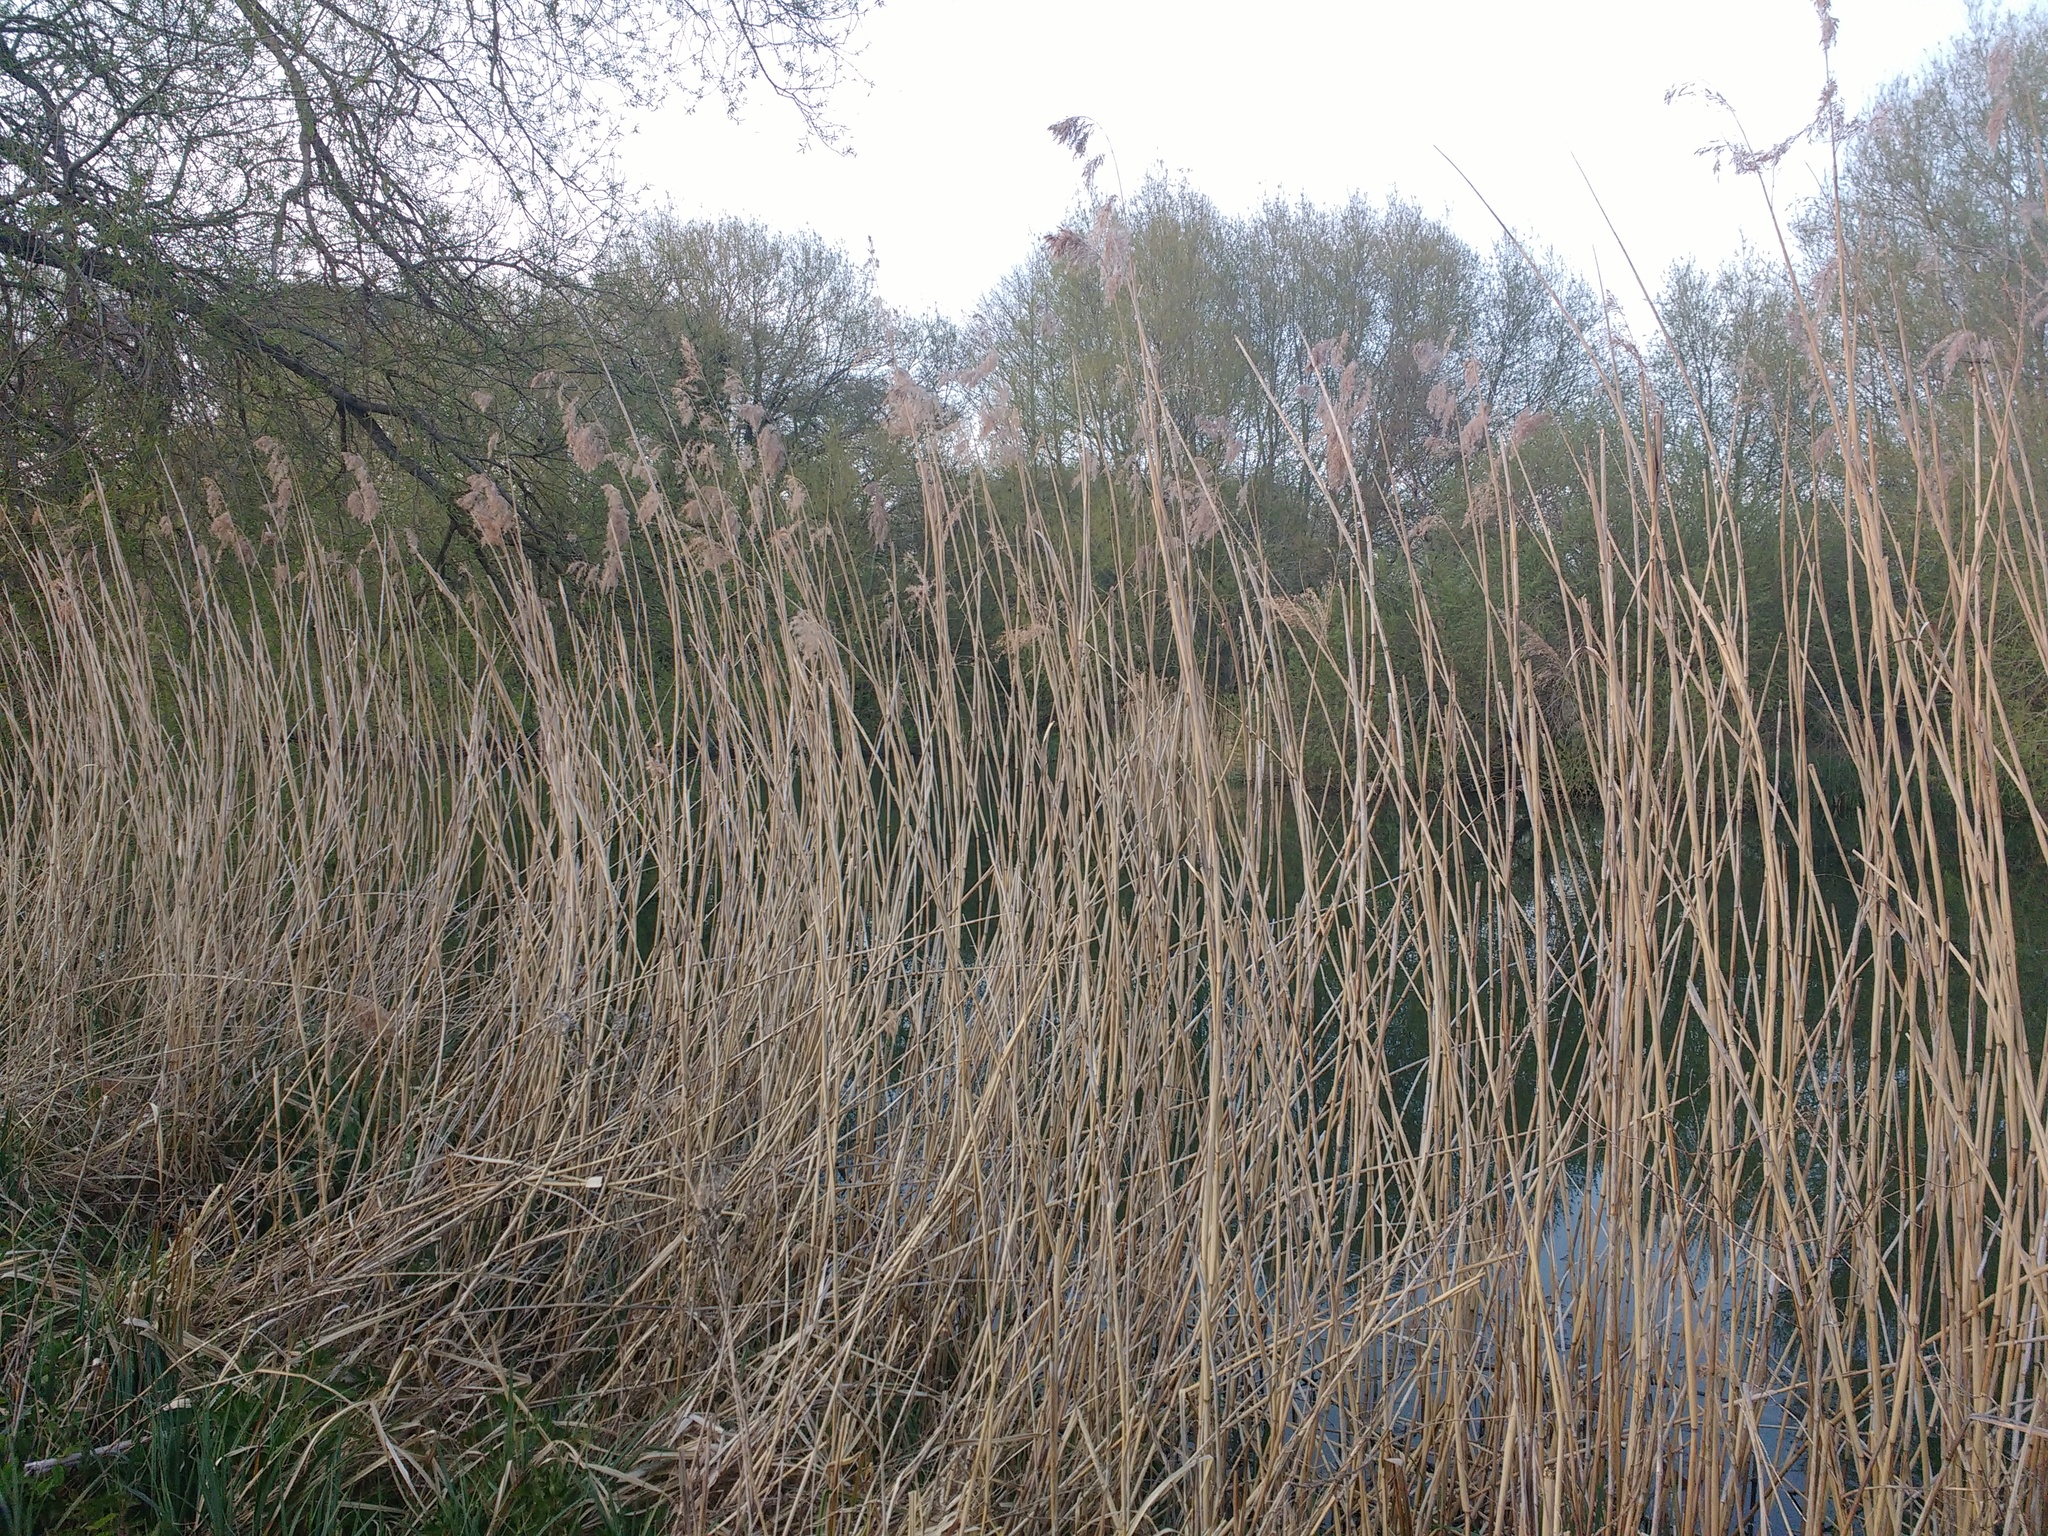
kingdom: Plantae
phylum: Tracheophyta
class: Liliopsida
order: Poales
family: Poaceae
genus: Phragmites
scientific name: Phragmites australis
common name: Common reed
